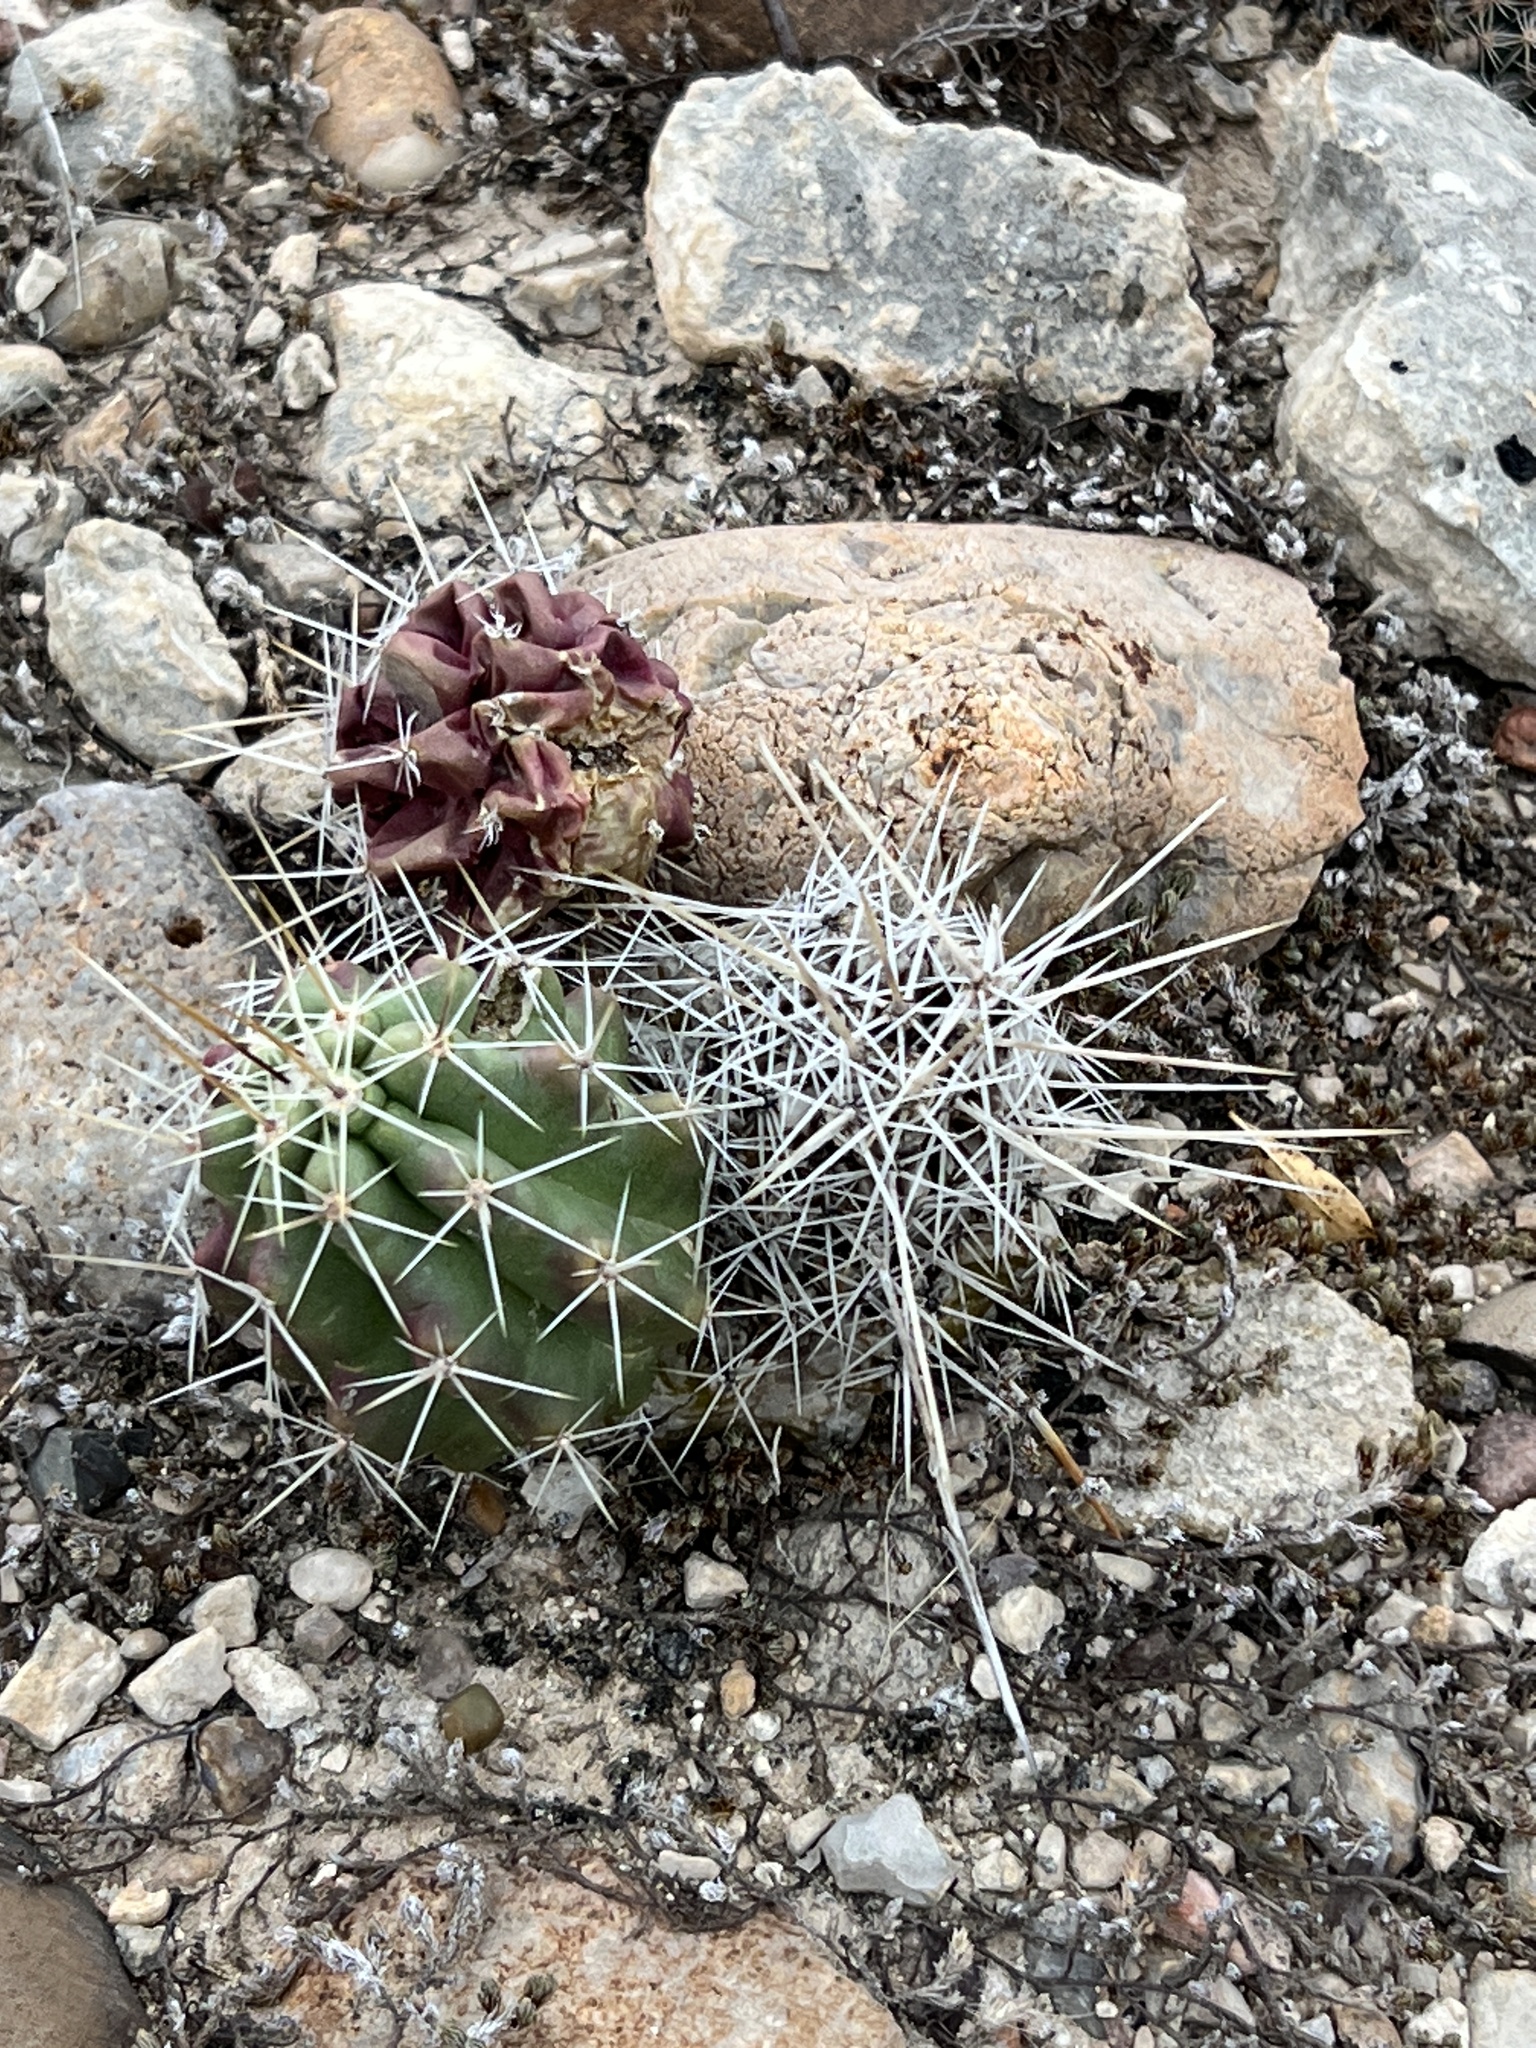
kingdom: Plantae
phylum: Tracheophyta
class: Magnoliopsida
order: Caryophyllales
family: Cactaceae
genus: Echinocereus
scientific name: Echinocereus enneacanthus
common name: Pitaya
